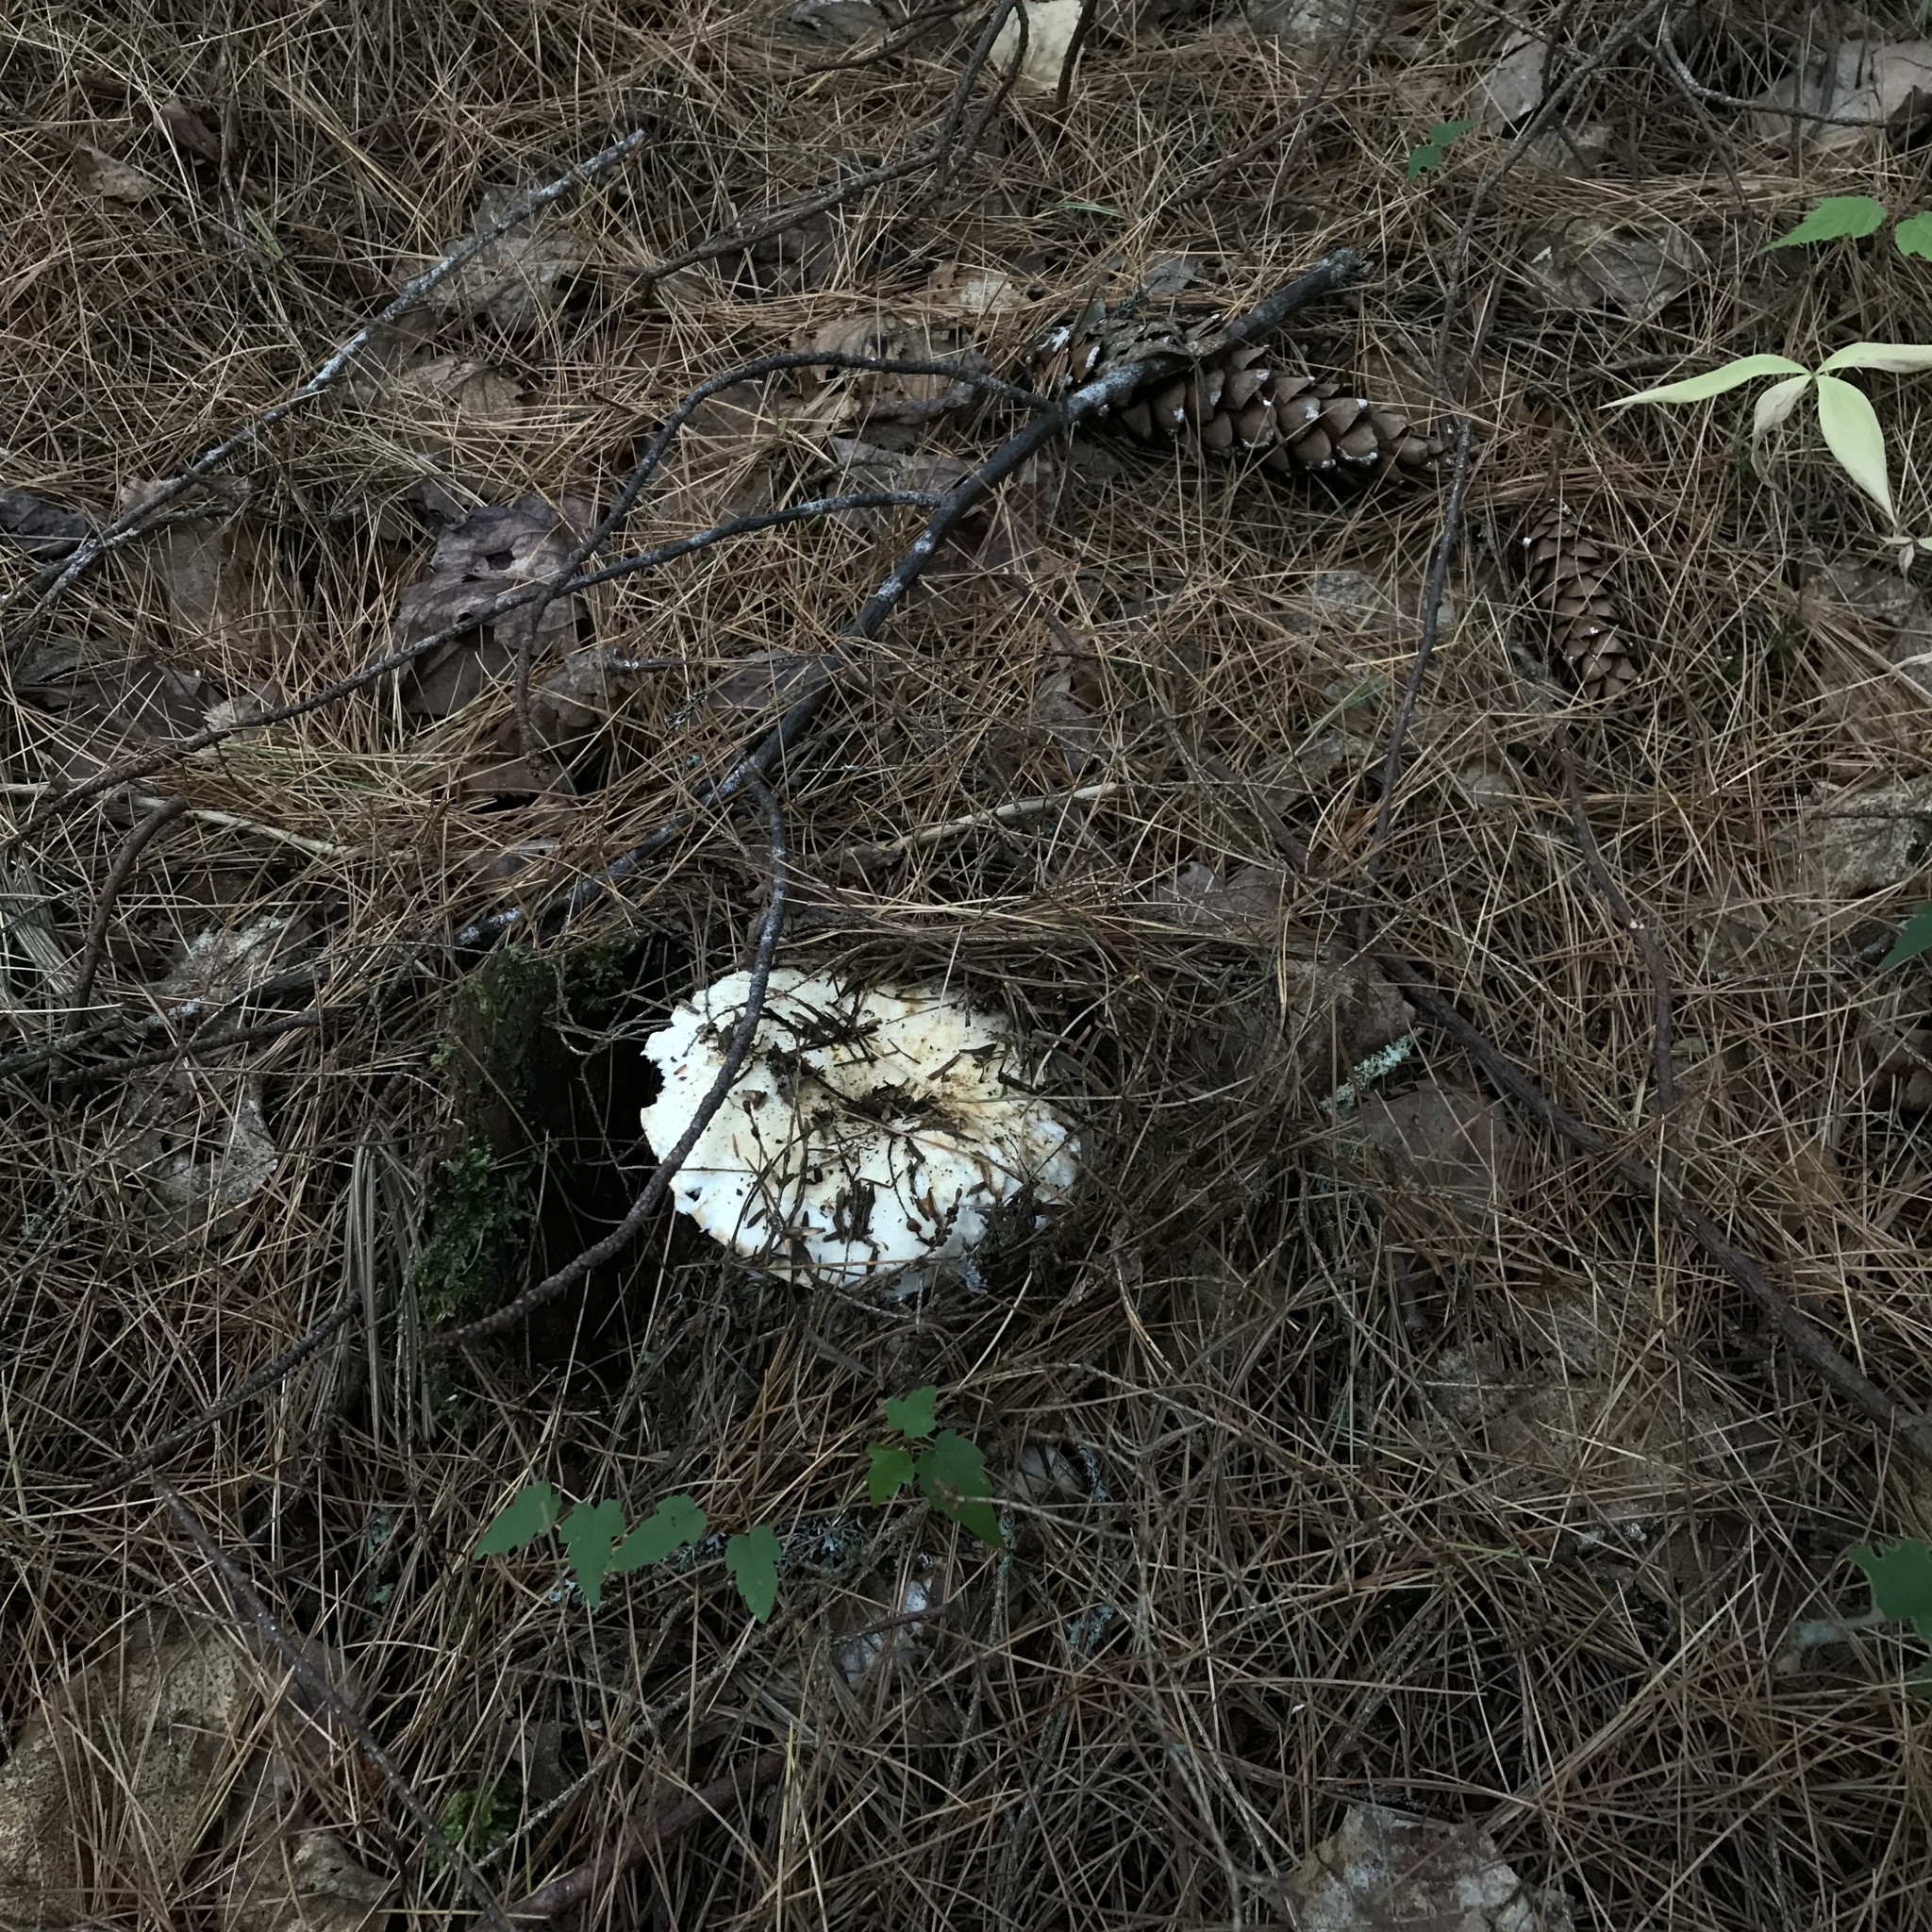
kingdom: Fungi
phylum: Basidiomycota
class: Agaricomycetes
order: Russulales
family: Russulaceae
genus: Lactifluus
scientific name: Lactifluus
